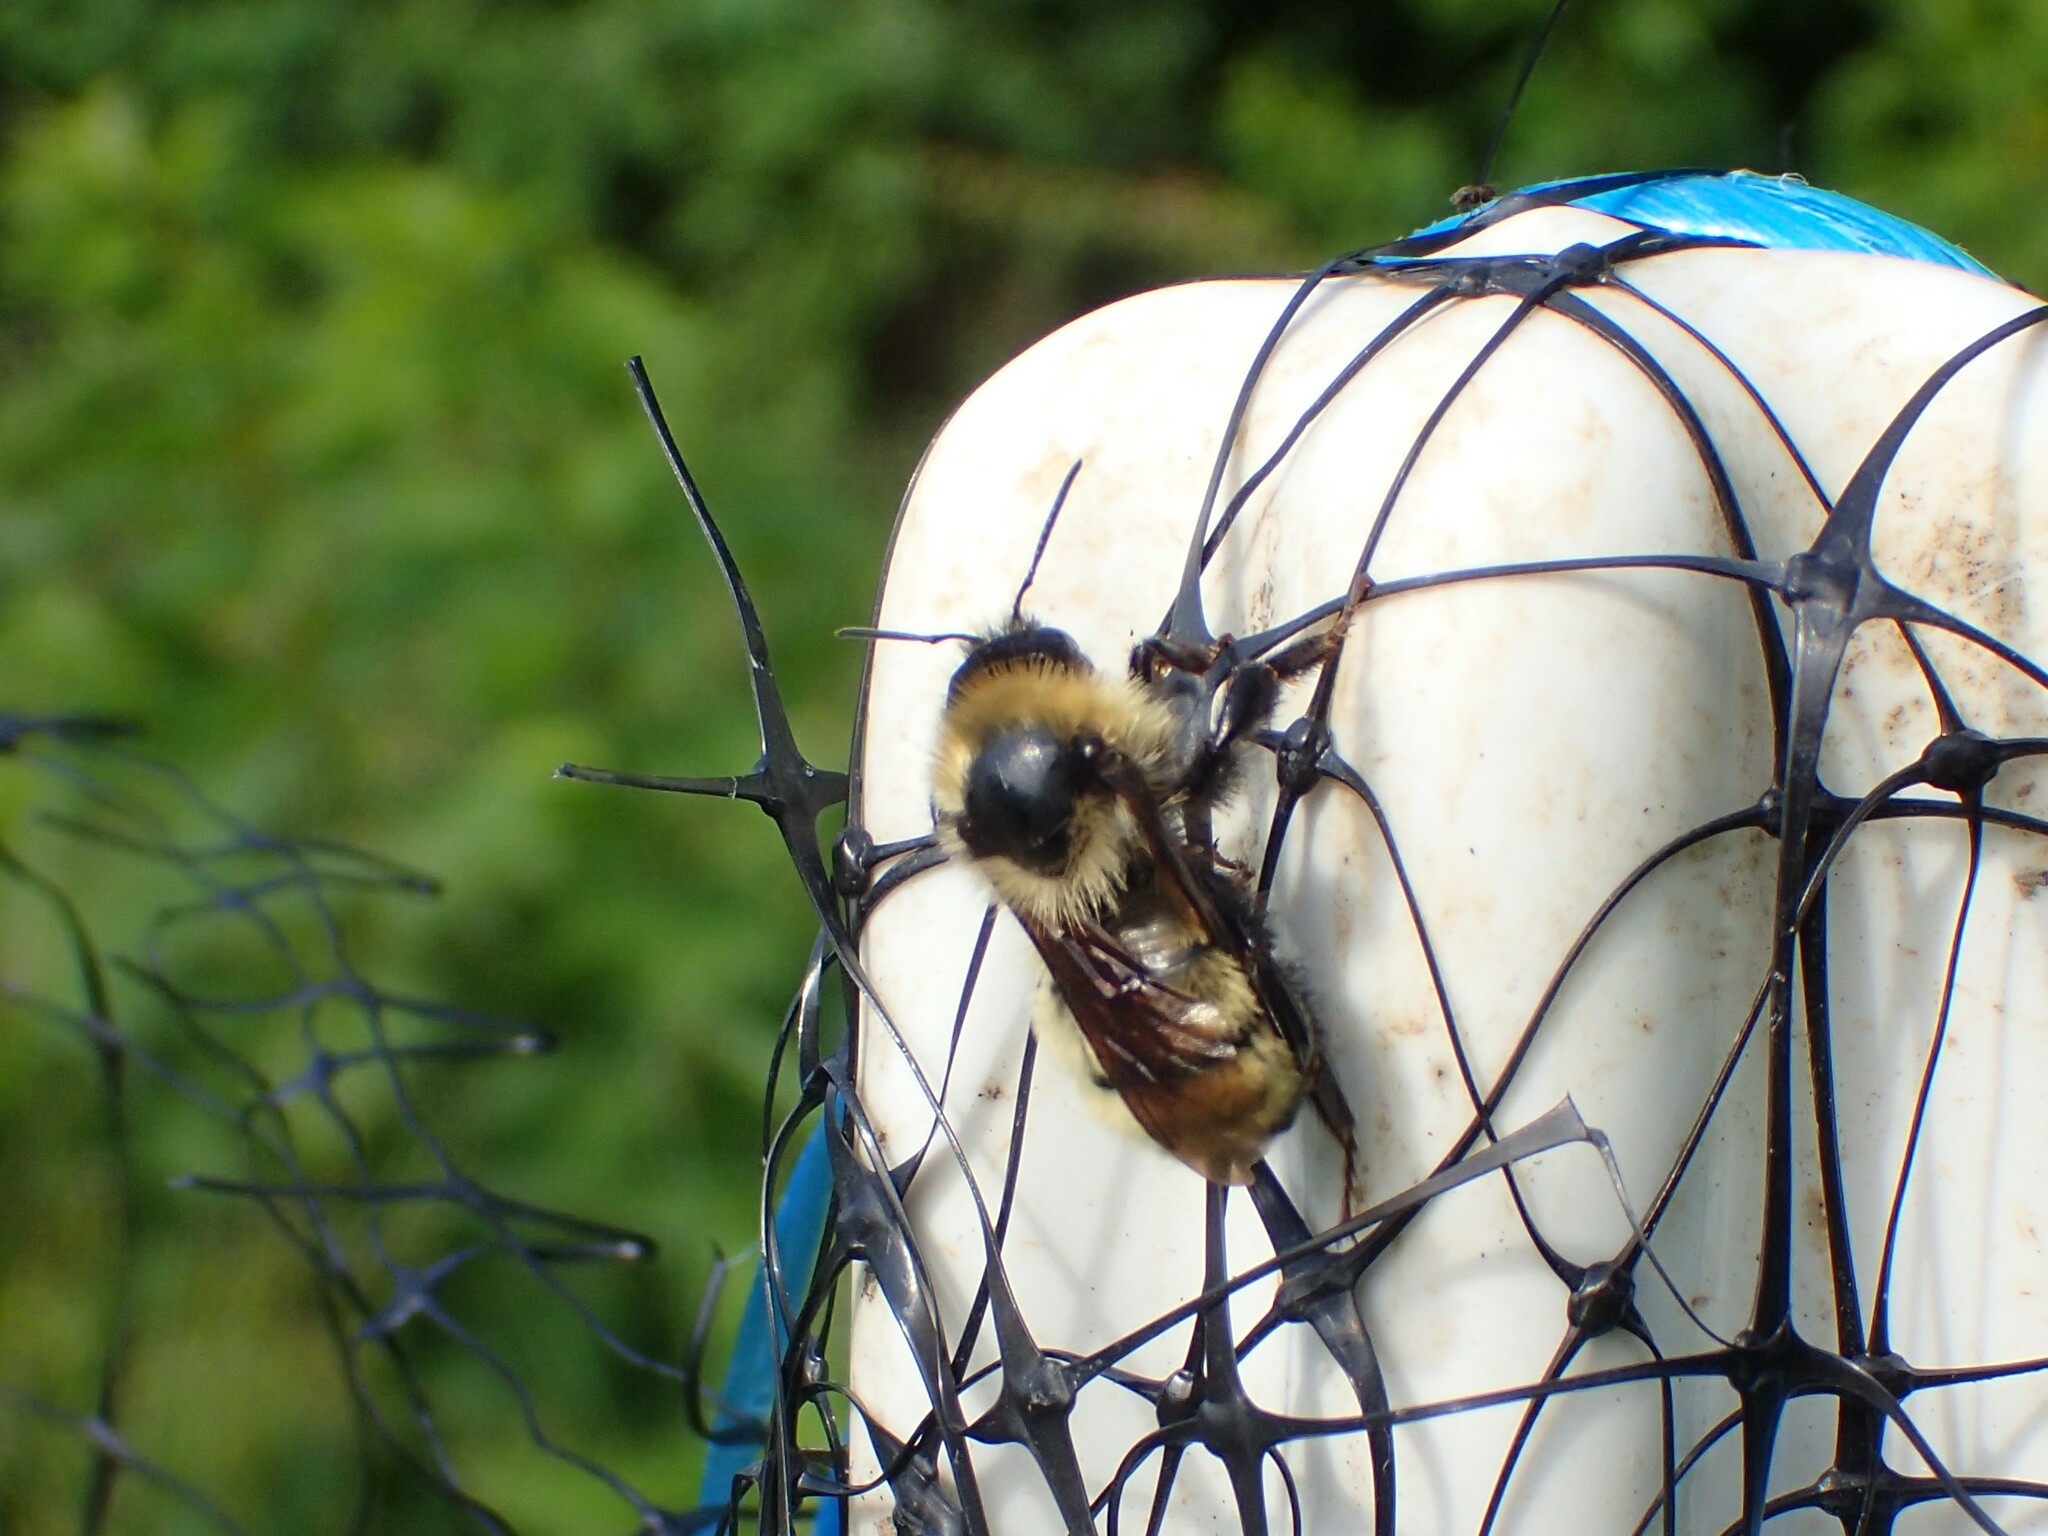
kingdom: Animalia
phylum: Arthropoda
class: Insecta
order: Hymenoptera
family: Apidae
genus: Bombus
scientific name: Bombus fervidus
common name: Yellow bumble bee
